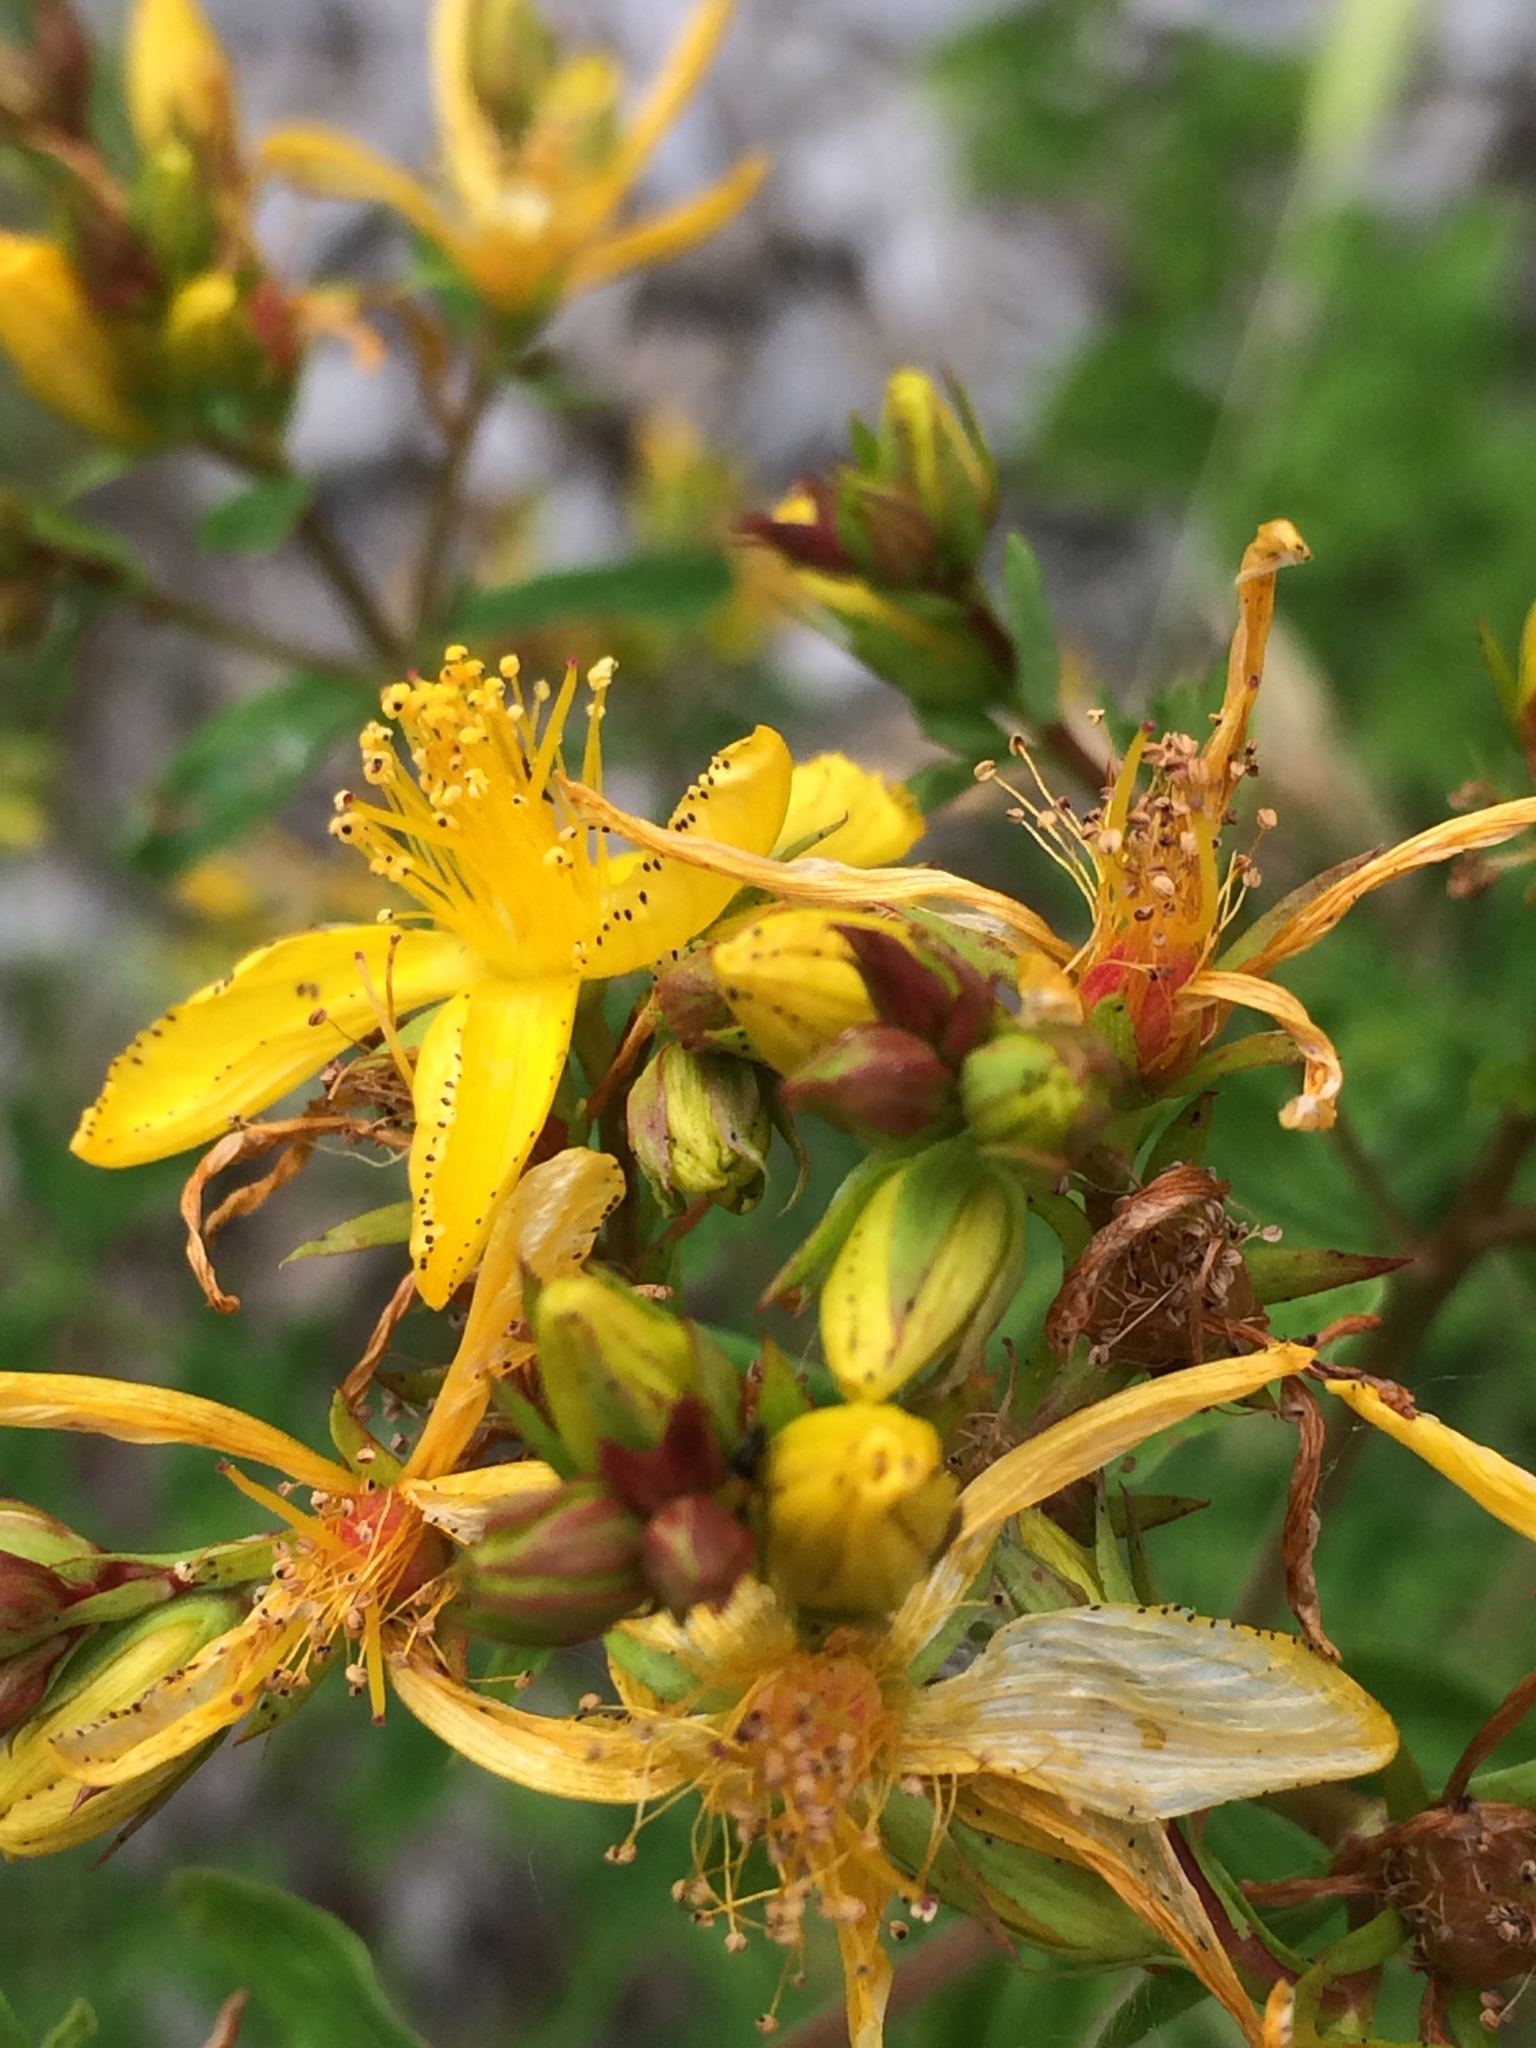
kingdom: Plantae
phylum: Tracheophyta
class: Magnoliopsida
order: Malpighiales
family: Hypericaceae
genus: Hypericum
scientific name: Hypericum perforatum
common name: Common st. johnswort
